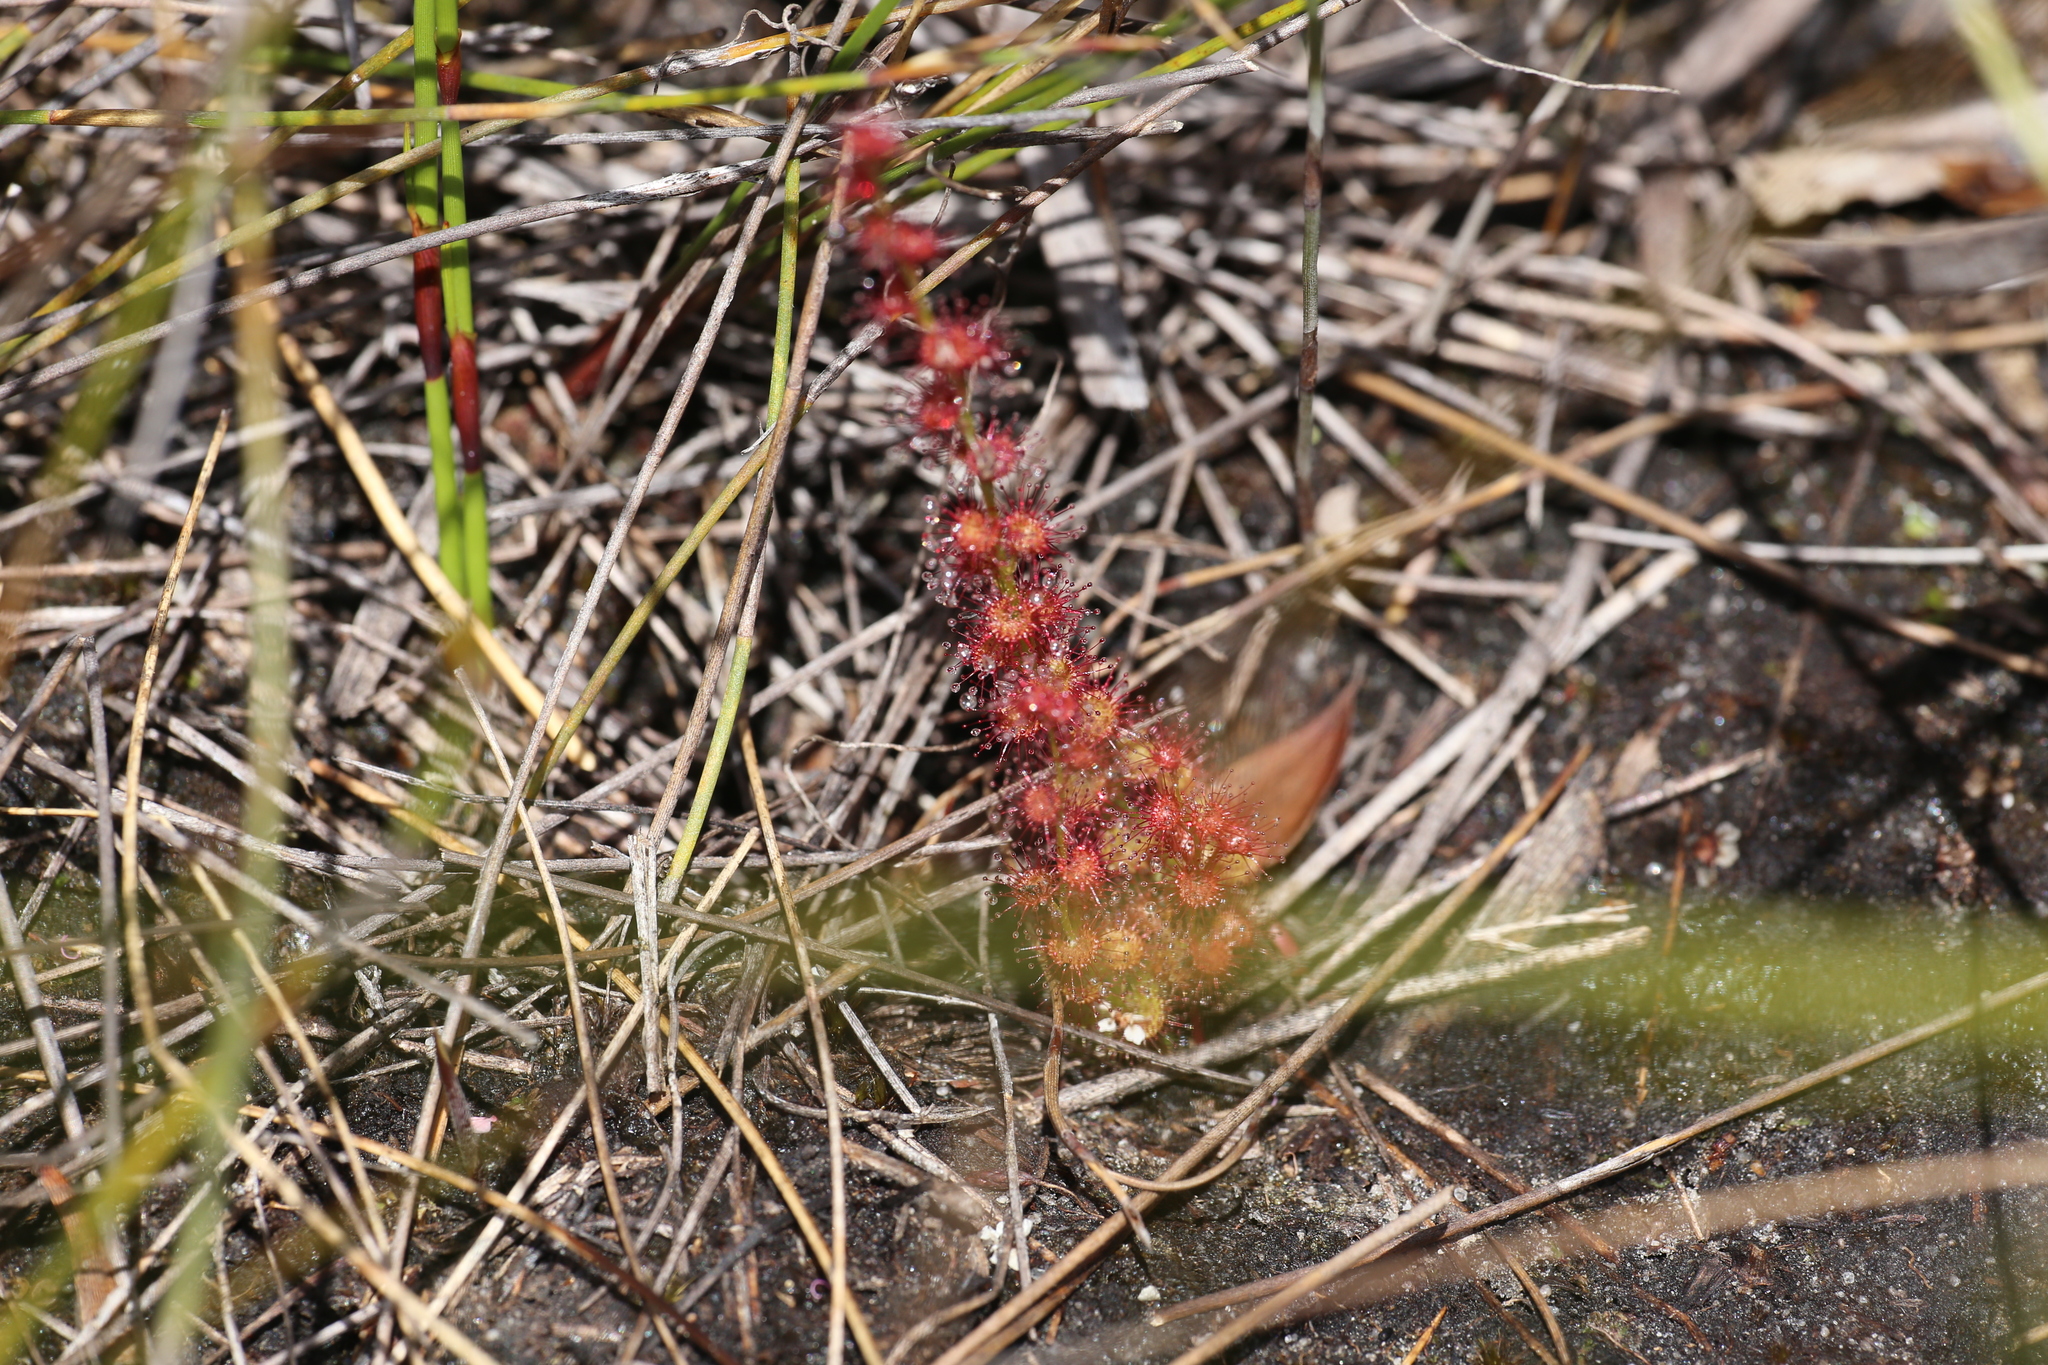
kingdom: Plantae
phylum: Tracheophyta
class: Magnoliopsida
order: Caryophyllales
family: Droseraceae
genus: Drosera
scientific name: Drosera platypoda
